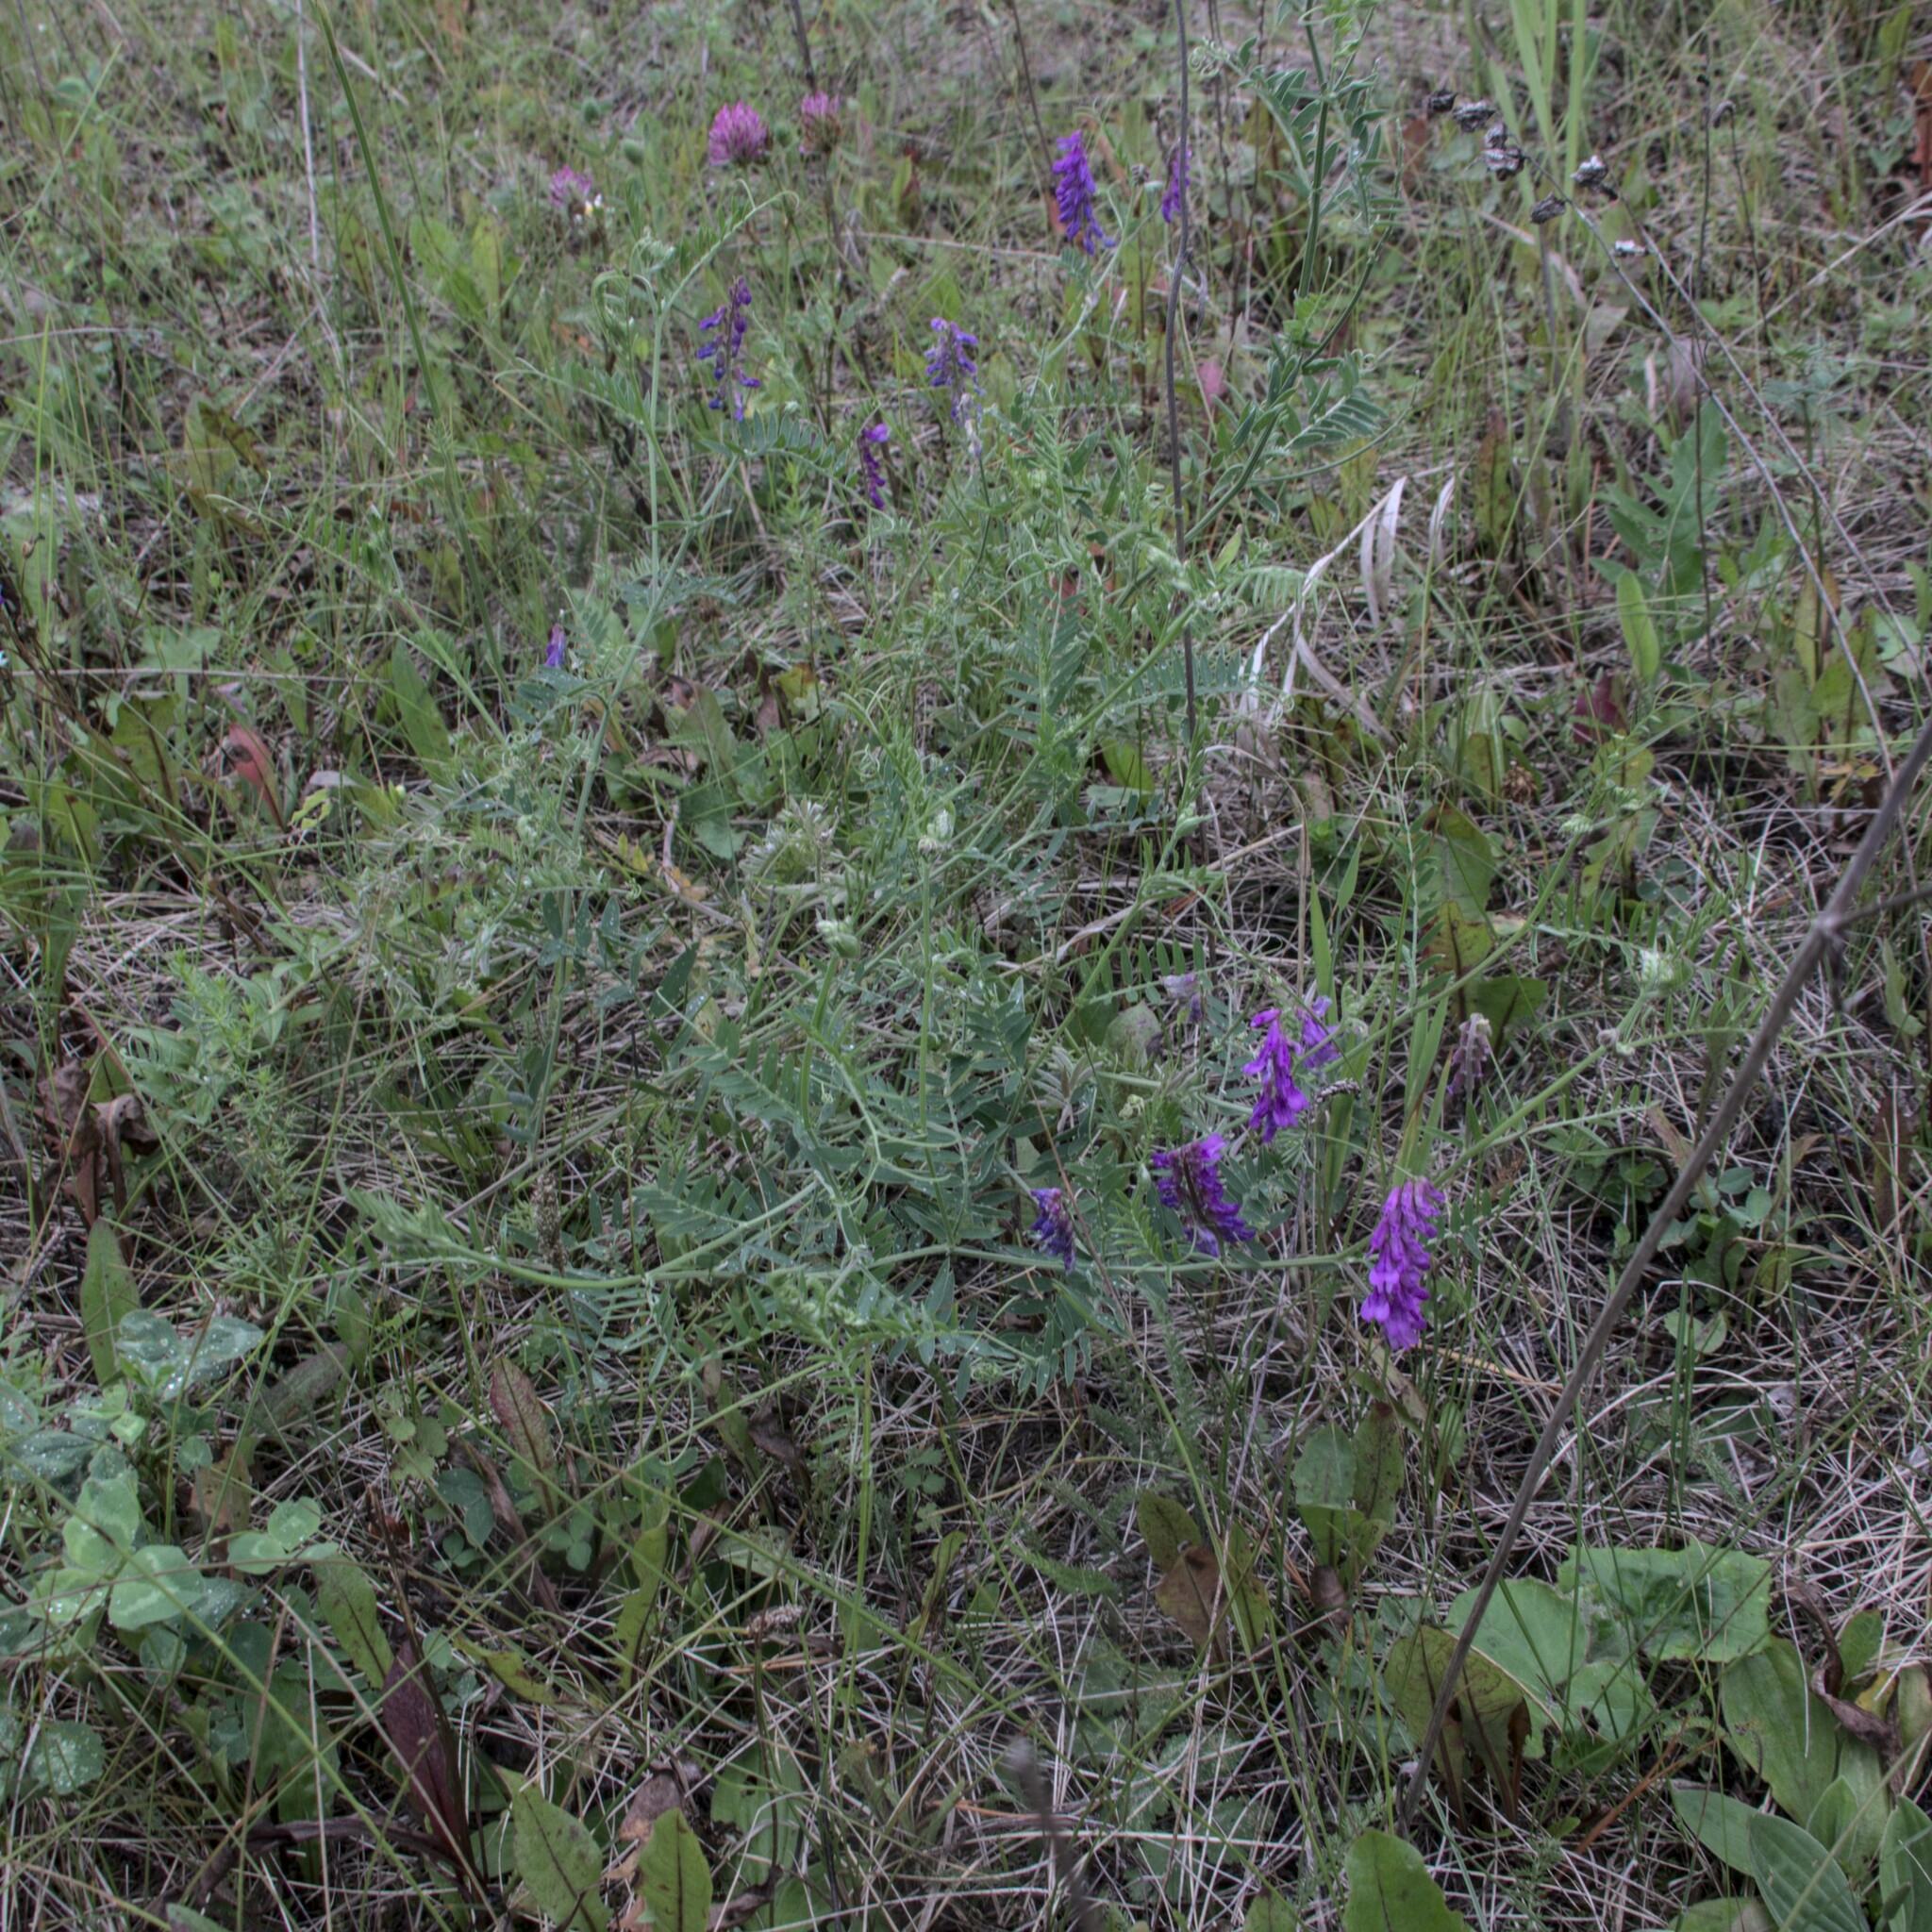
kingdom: Plantae
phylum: Tracheophyta
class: Magnoliopsida
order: Fabales
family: Fabaceae
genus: Vicia
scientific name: Vicia cracca
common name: Bird vetch
